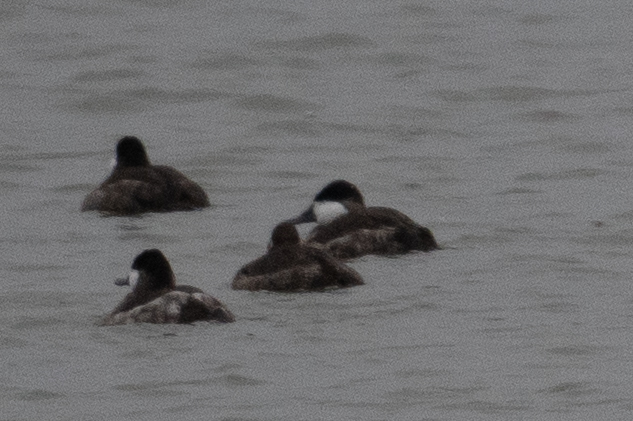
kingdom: Animalia
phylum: Chordata
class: Aves
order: Anseriformes
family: Anatidae
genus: Oxyura
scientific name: Oxyura jamaicensis
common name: Ruddy duck
